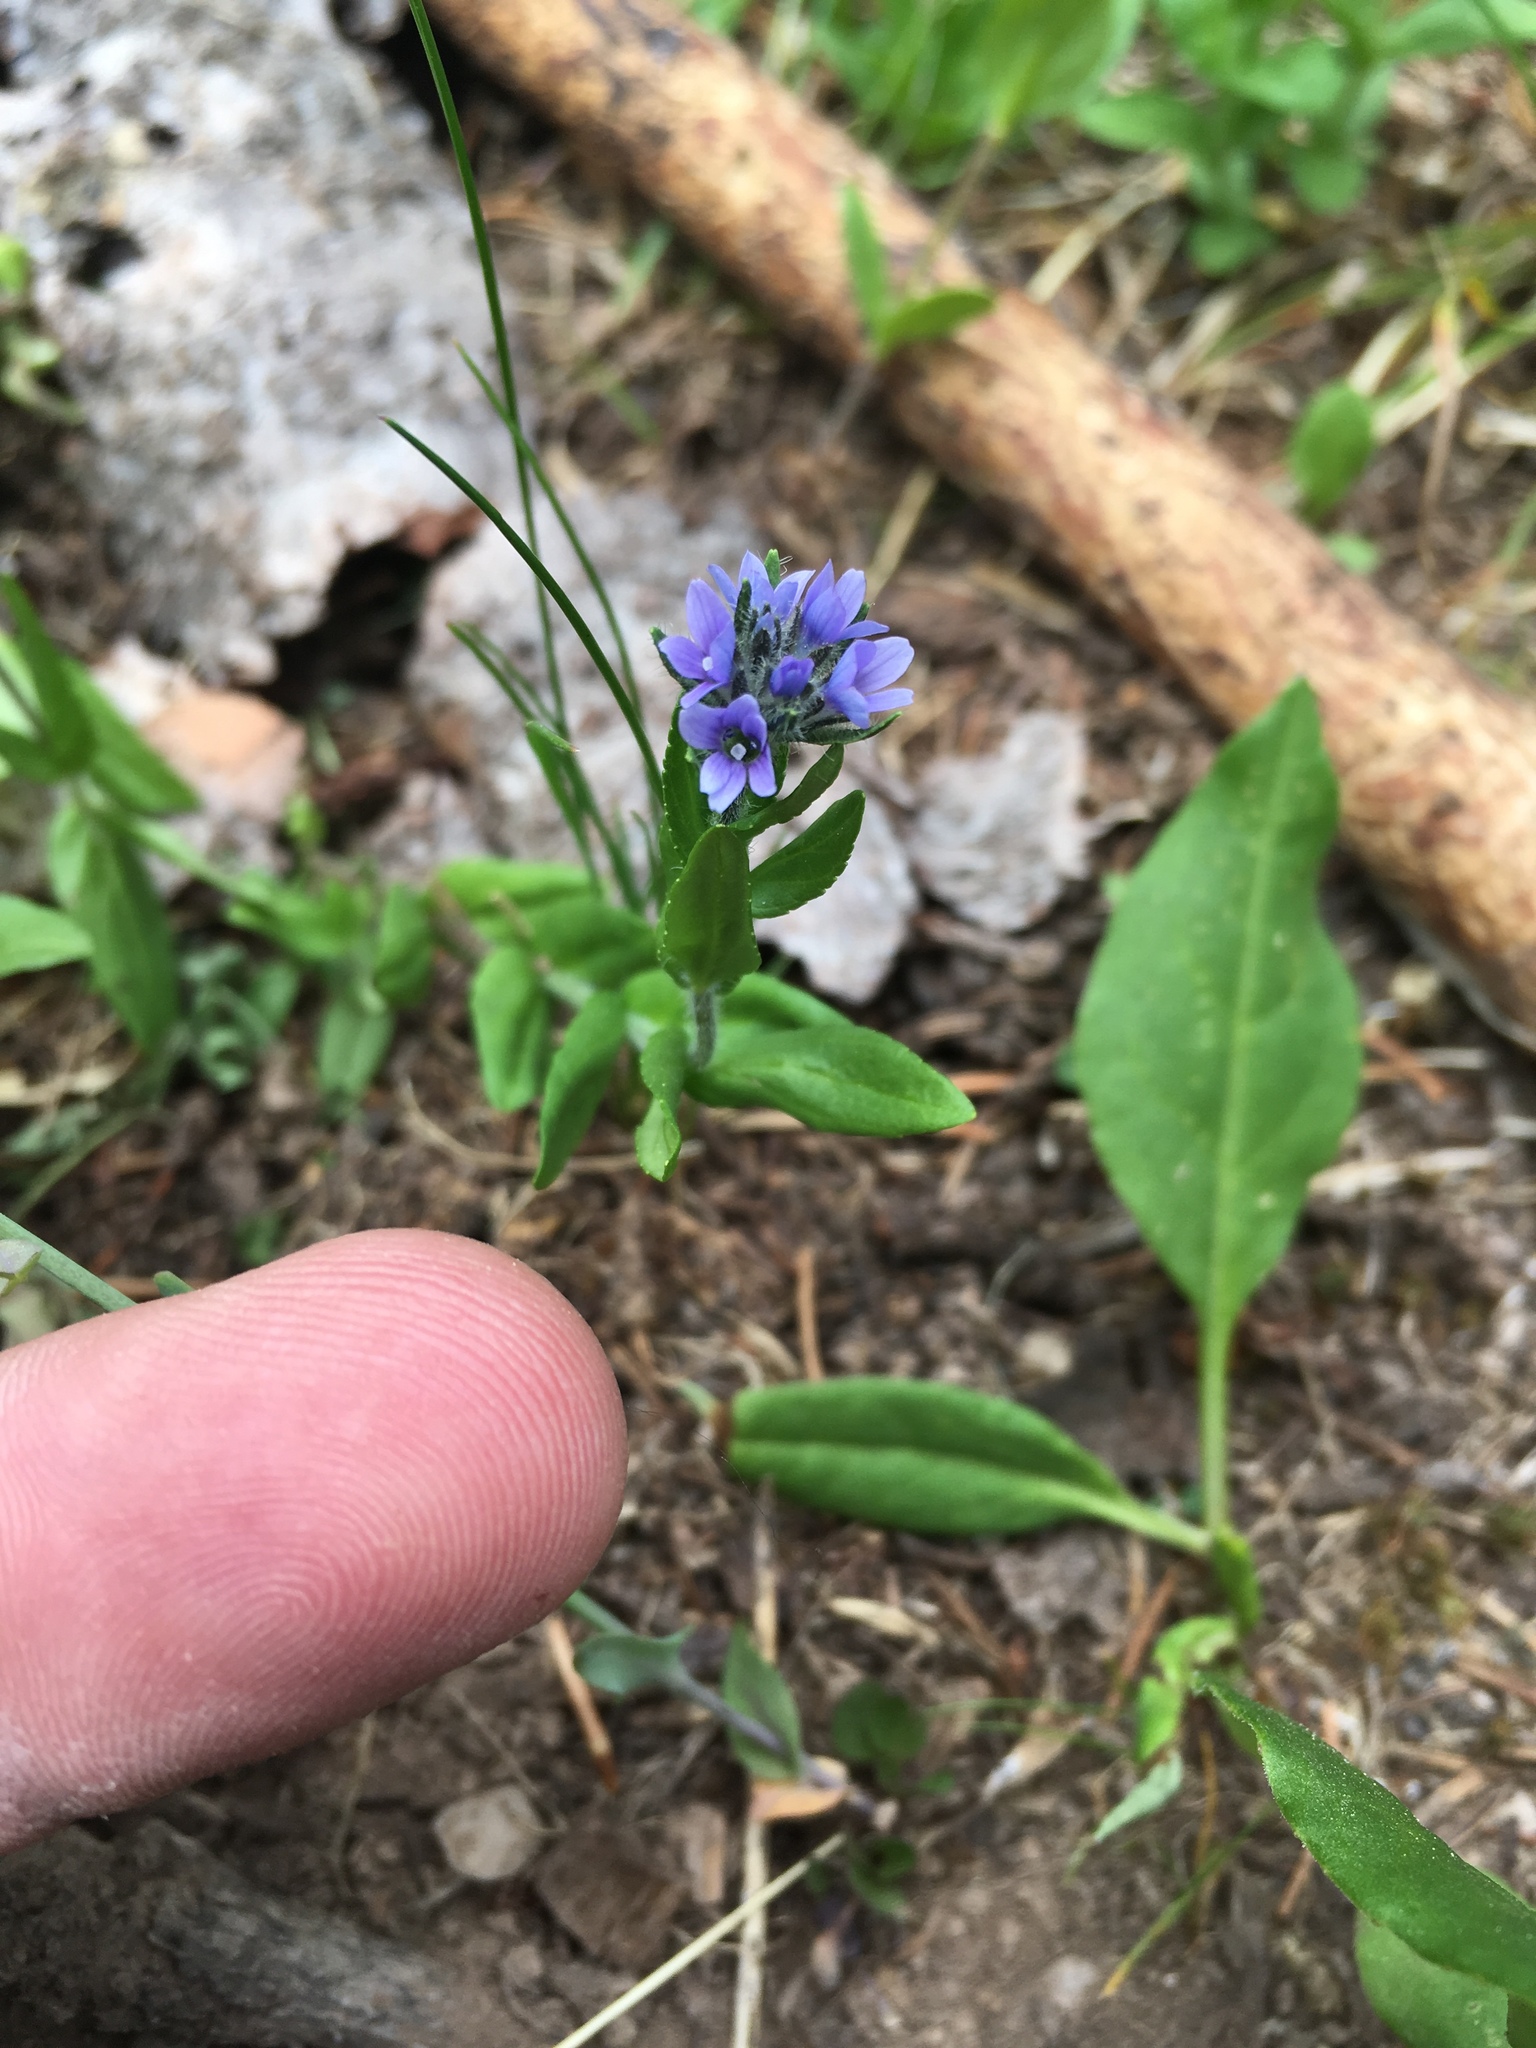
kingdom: Plantae
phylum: Tracheophyta
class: Magnoliopsida
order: Lamiales
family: Plantaginaceae
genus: Veronica
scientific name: Veronica wormskjoldii
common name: American alpine speedwell
